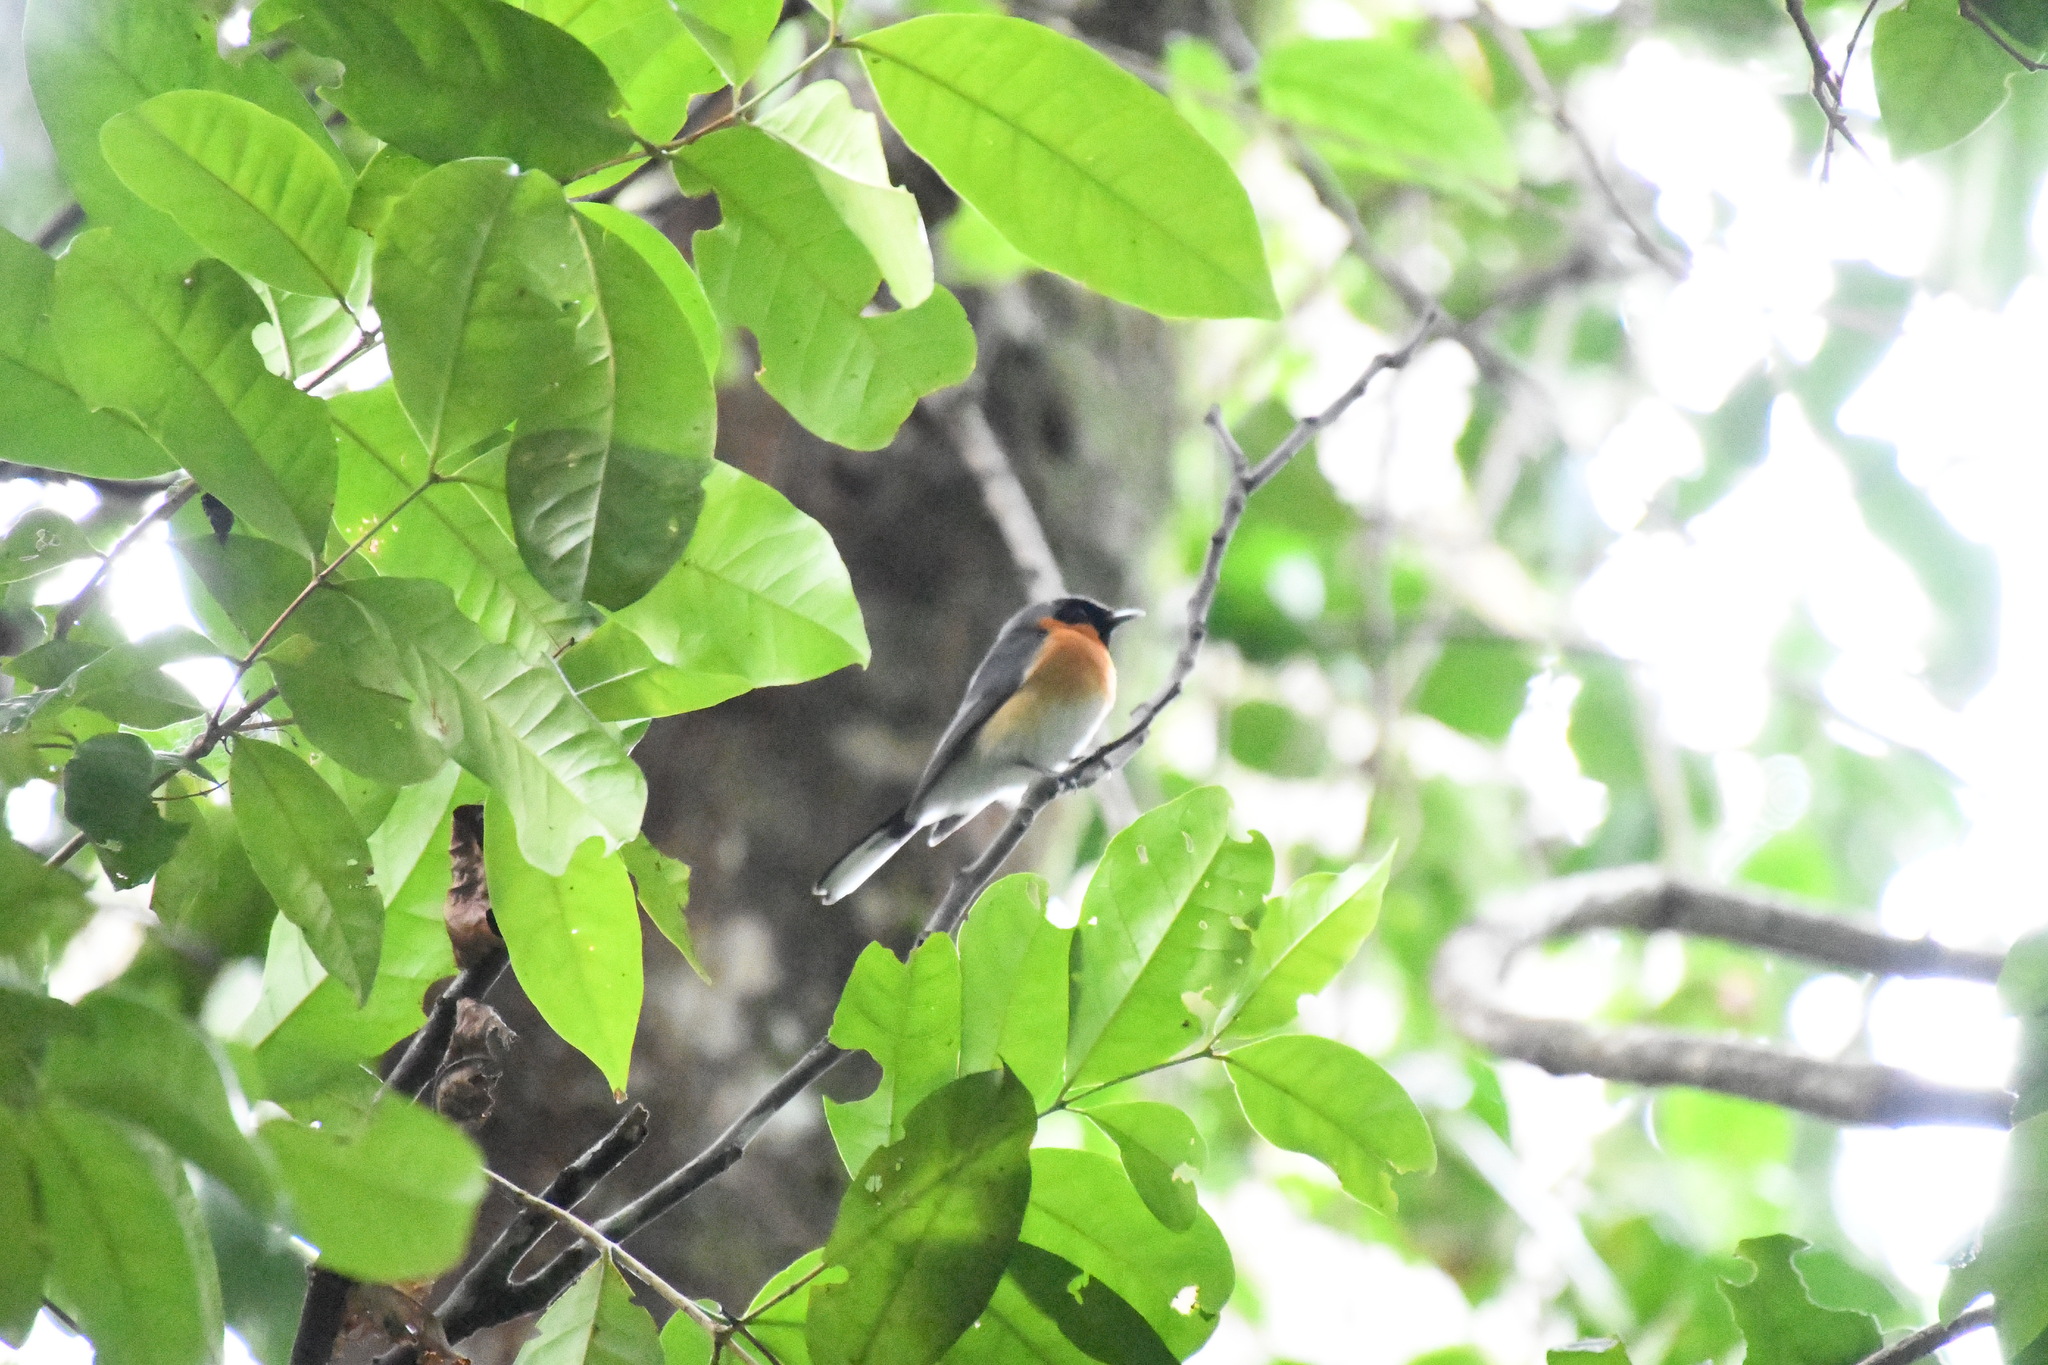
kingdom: Animalia
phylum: Chordata
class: Aves
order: Passeriformes
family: Monarchidae
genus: Symposiachrus
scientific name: Symposiachrus trivirgatus
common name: Spectacled monarch
